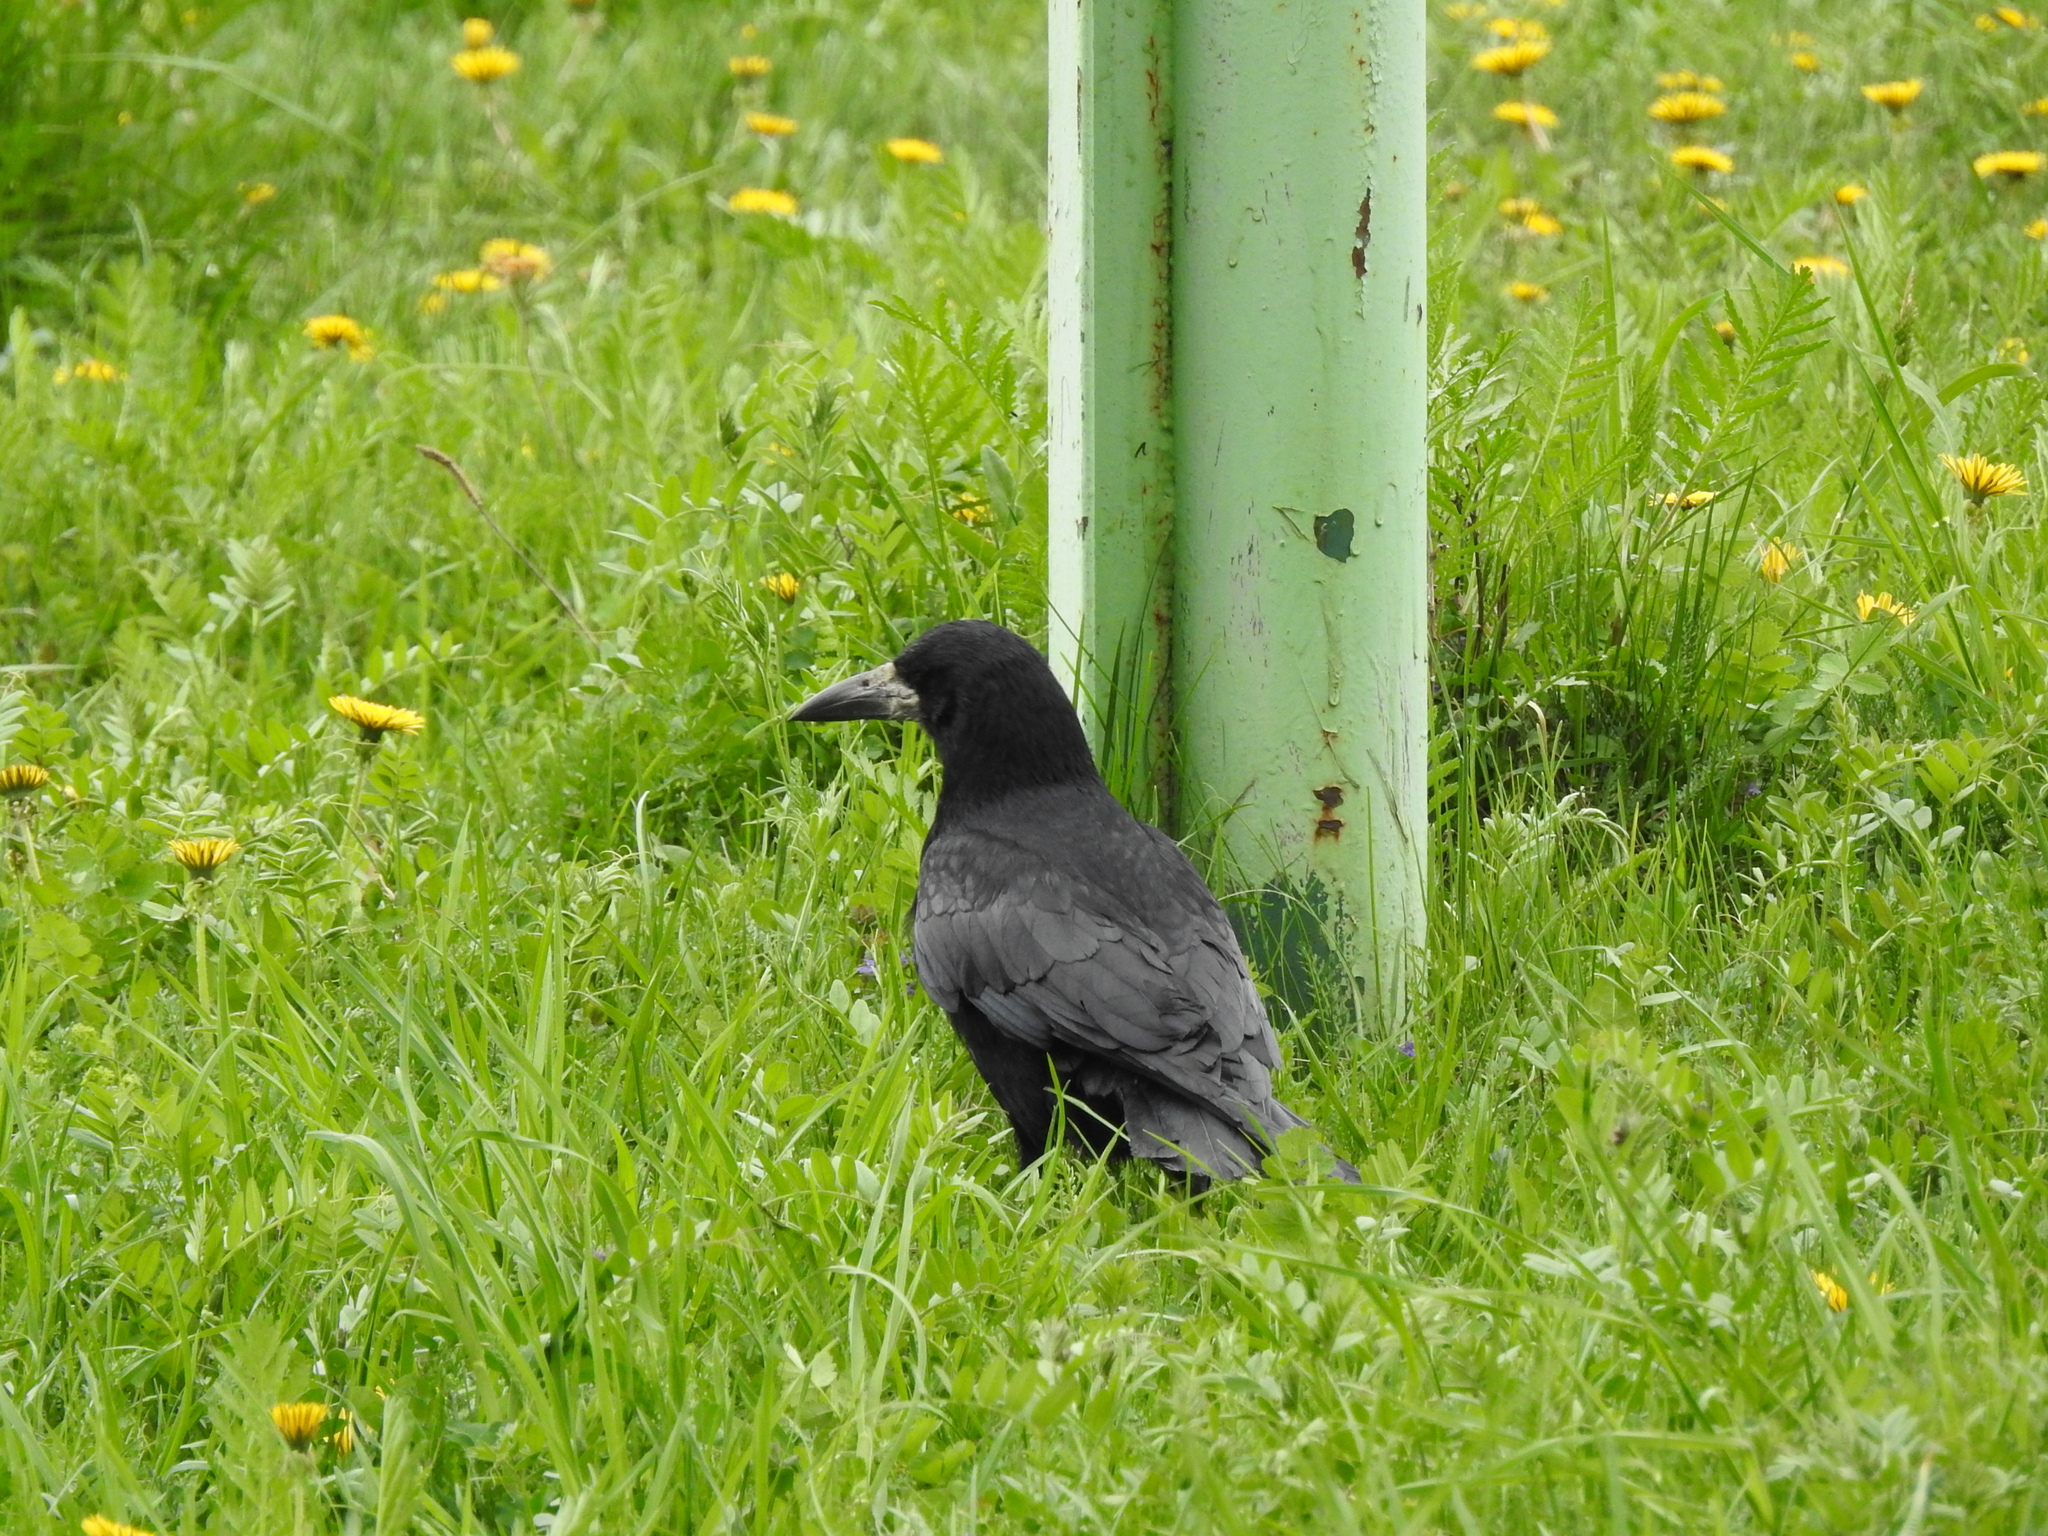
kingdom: Animalia
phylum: Chordata
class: Aves
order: Passeriformes
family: Corvidae
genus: Corvus
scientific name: Corvus frugilegus
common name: Rook
